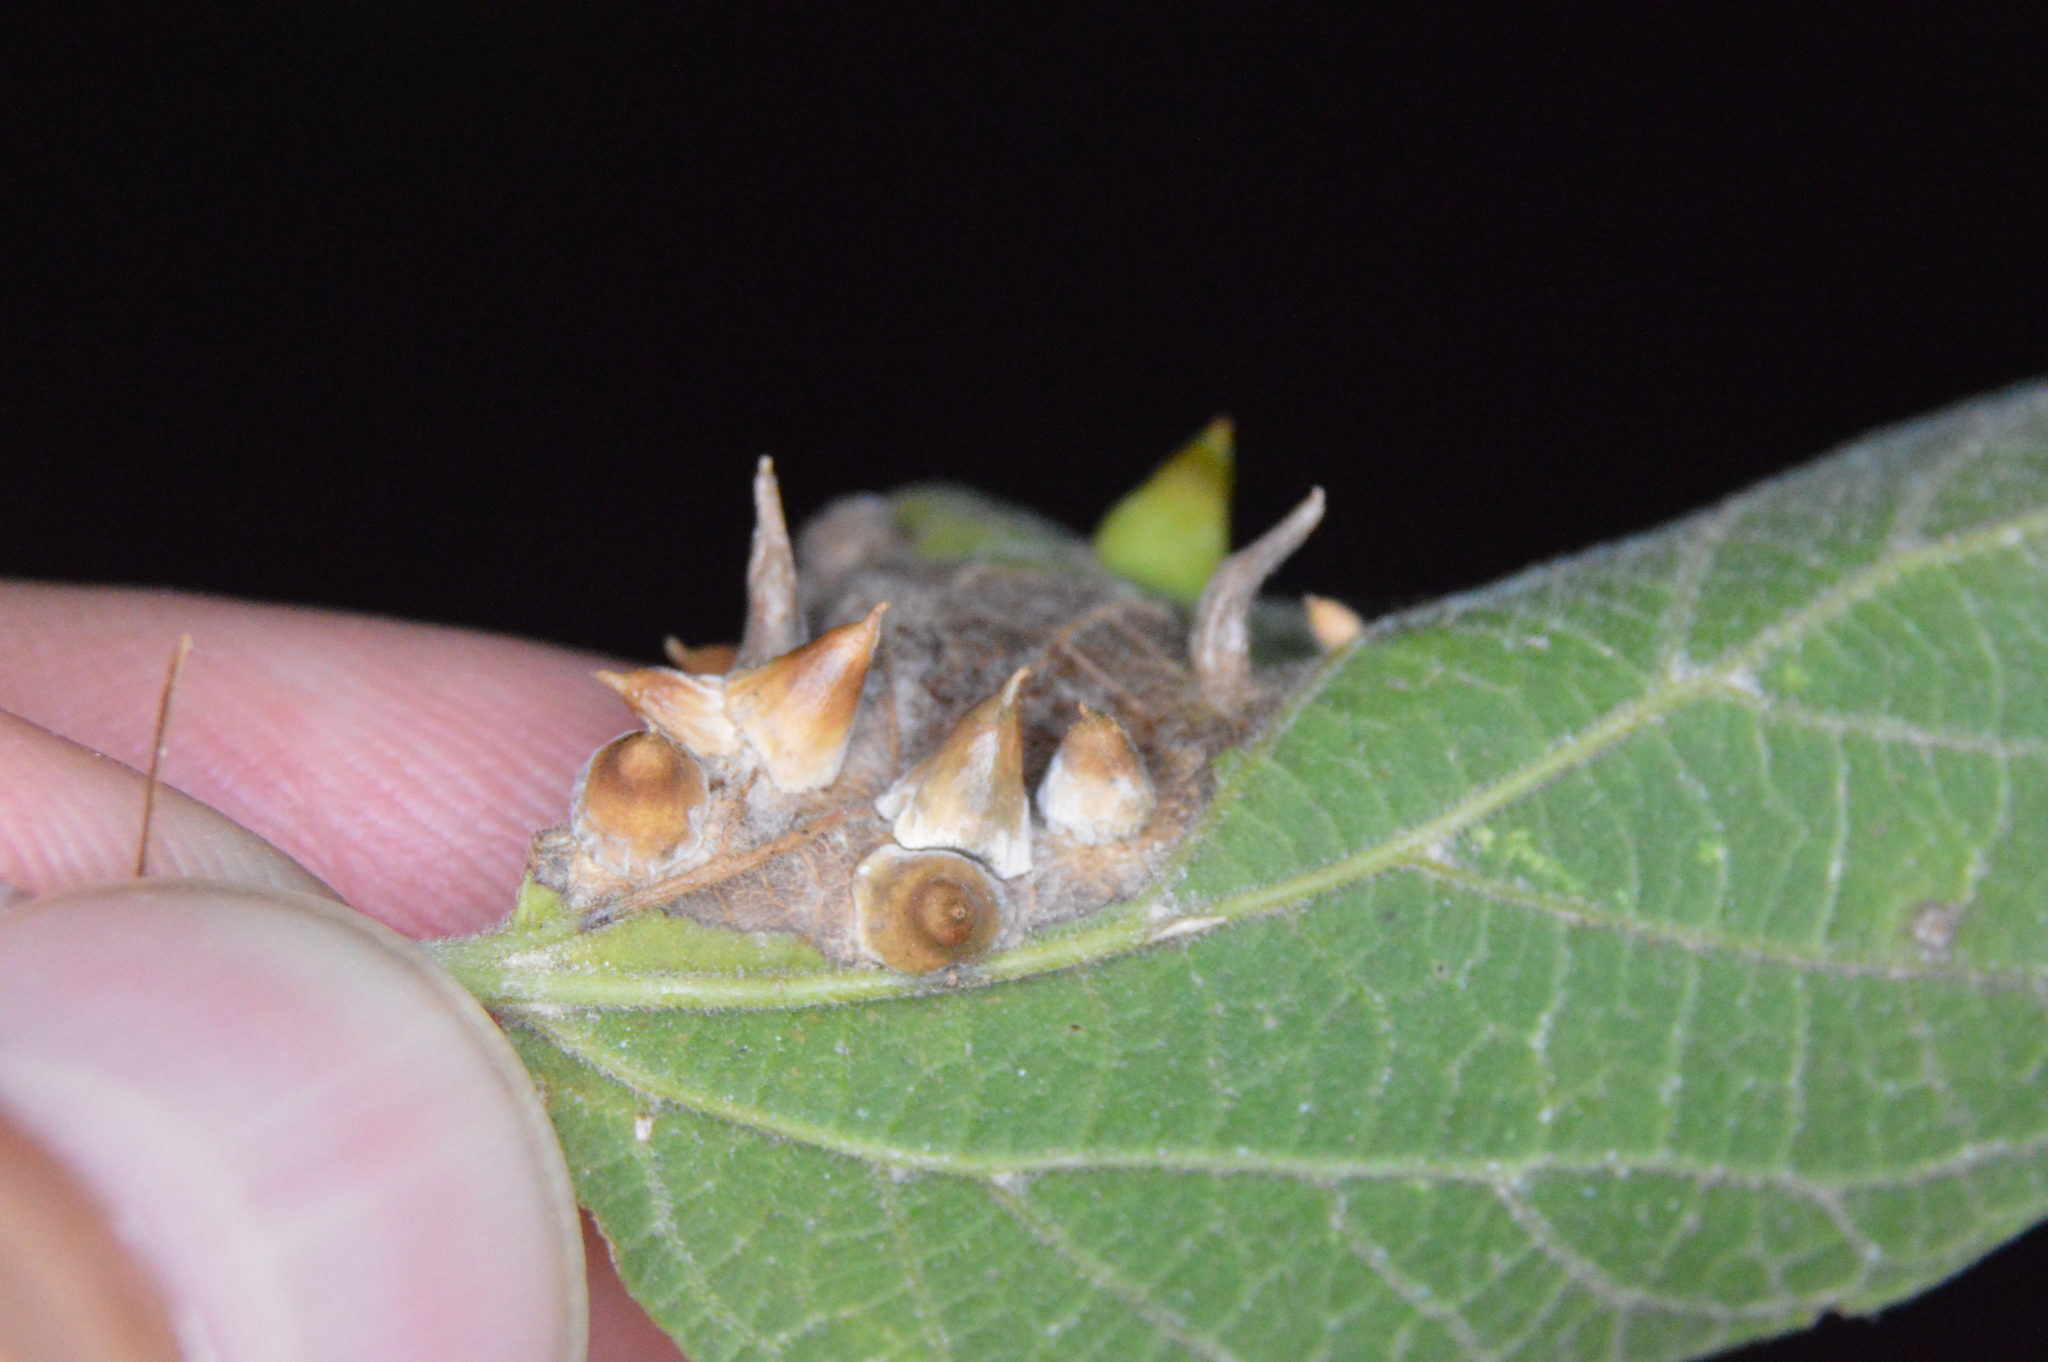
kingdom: Animalia
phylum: Arthropoda
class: Insecta
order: Diptera
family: Cecidomyiidae
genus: Celticecis
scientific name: Celticecis spiniformis
